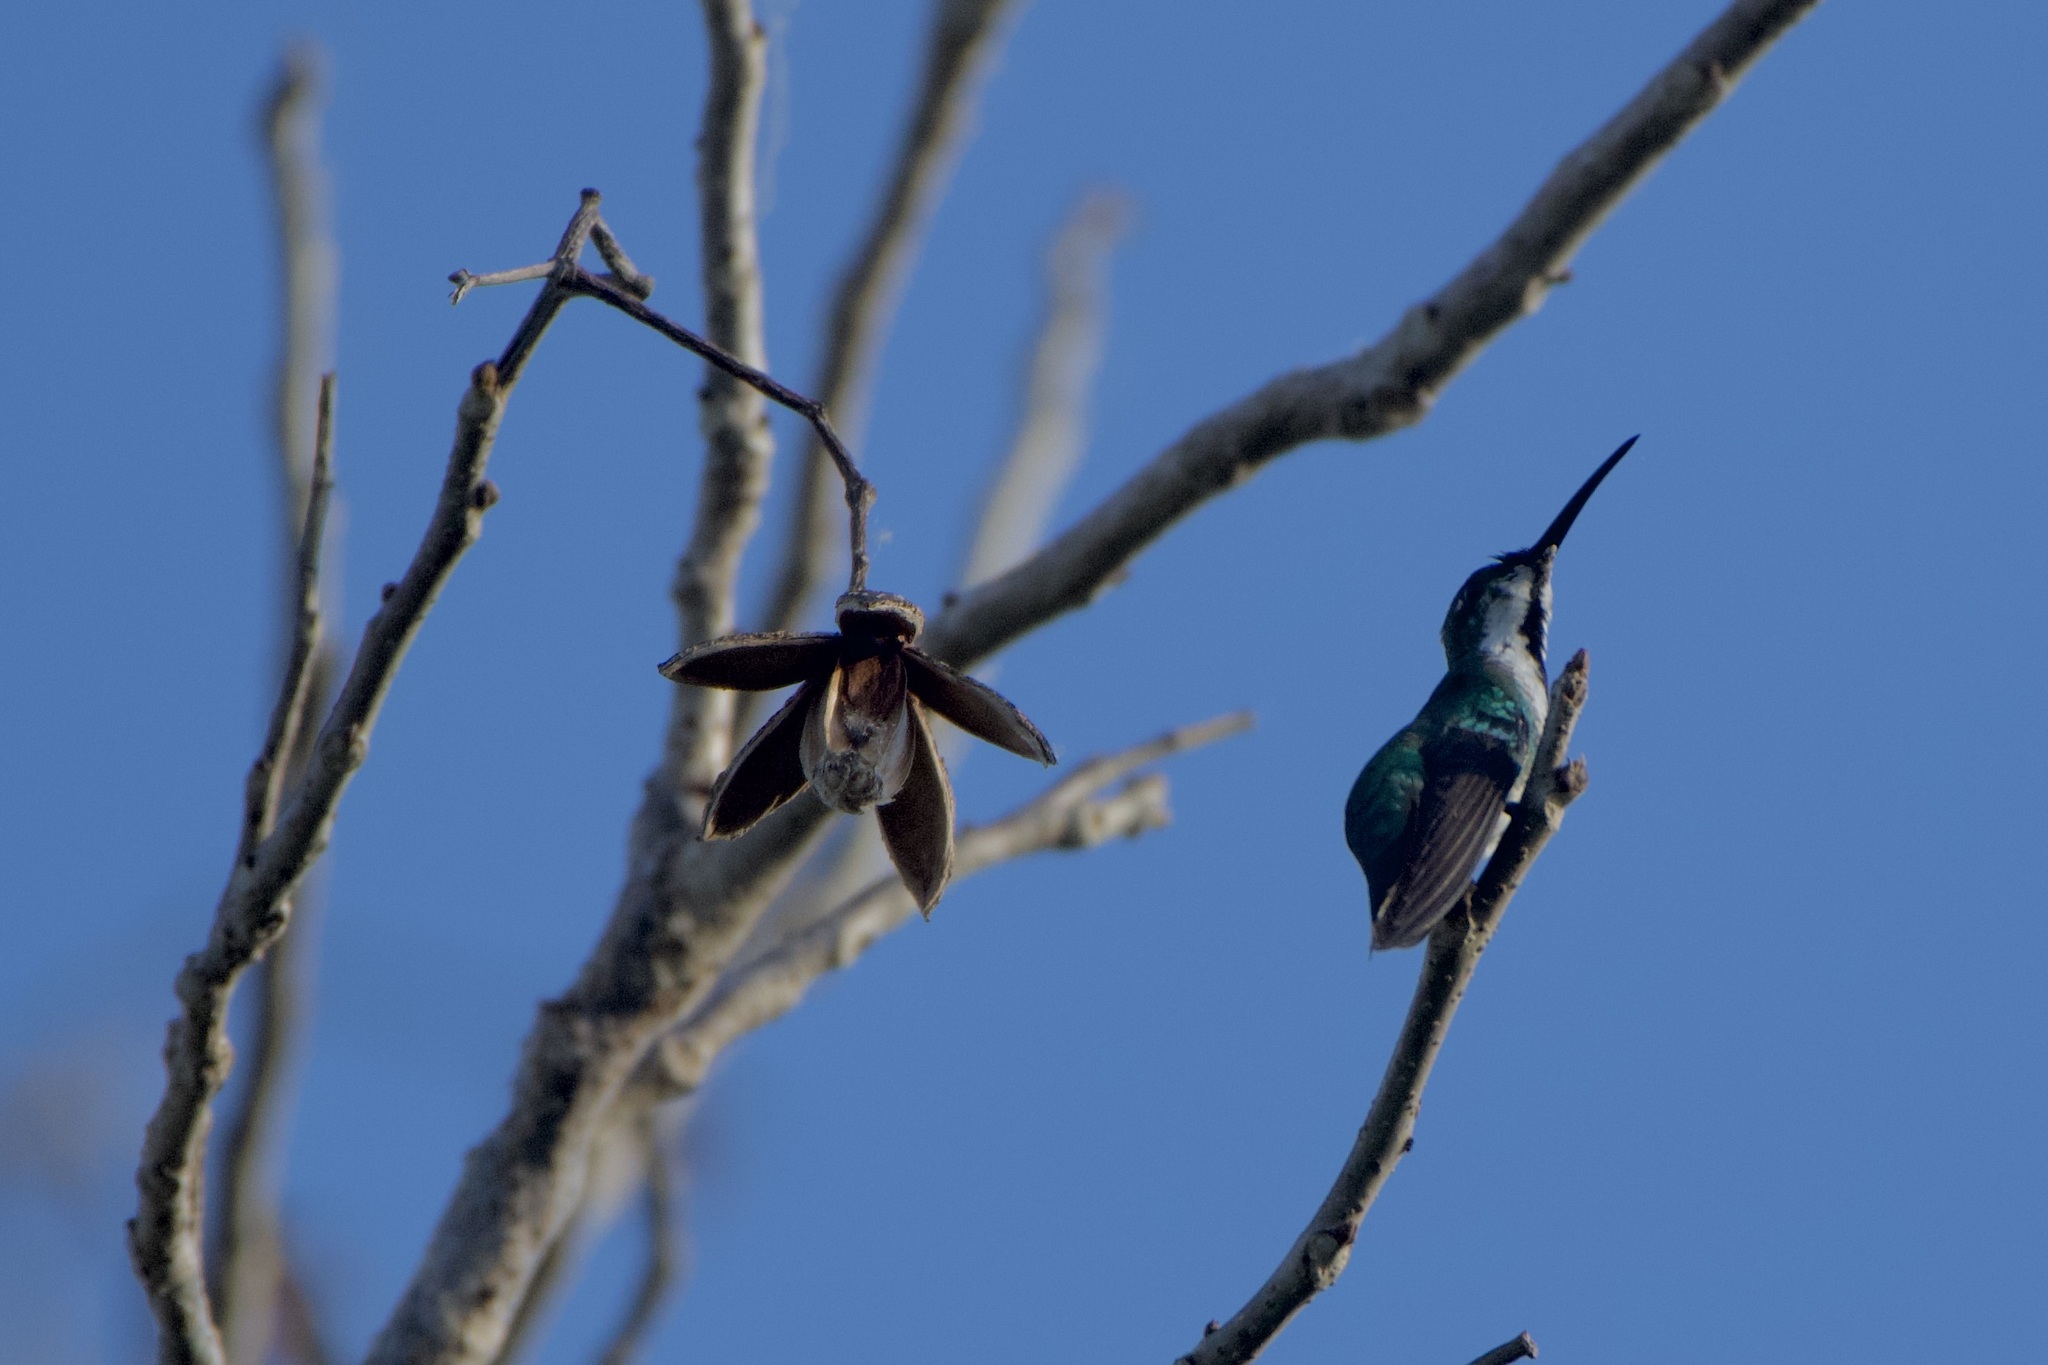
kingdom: Animalia
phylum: Chordata
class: Aves
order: Apodiformes
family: Trochilidae
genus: Anthracothorax
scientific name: Anthracothorax prevostii
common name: Green-breasted mango
